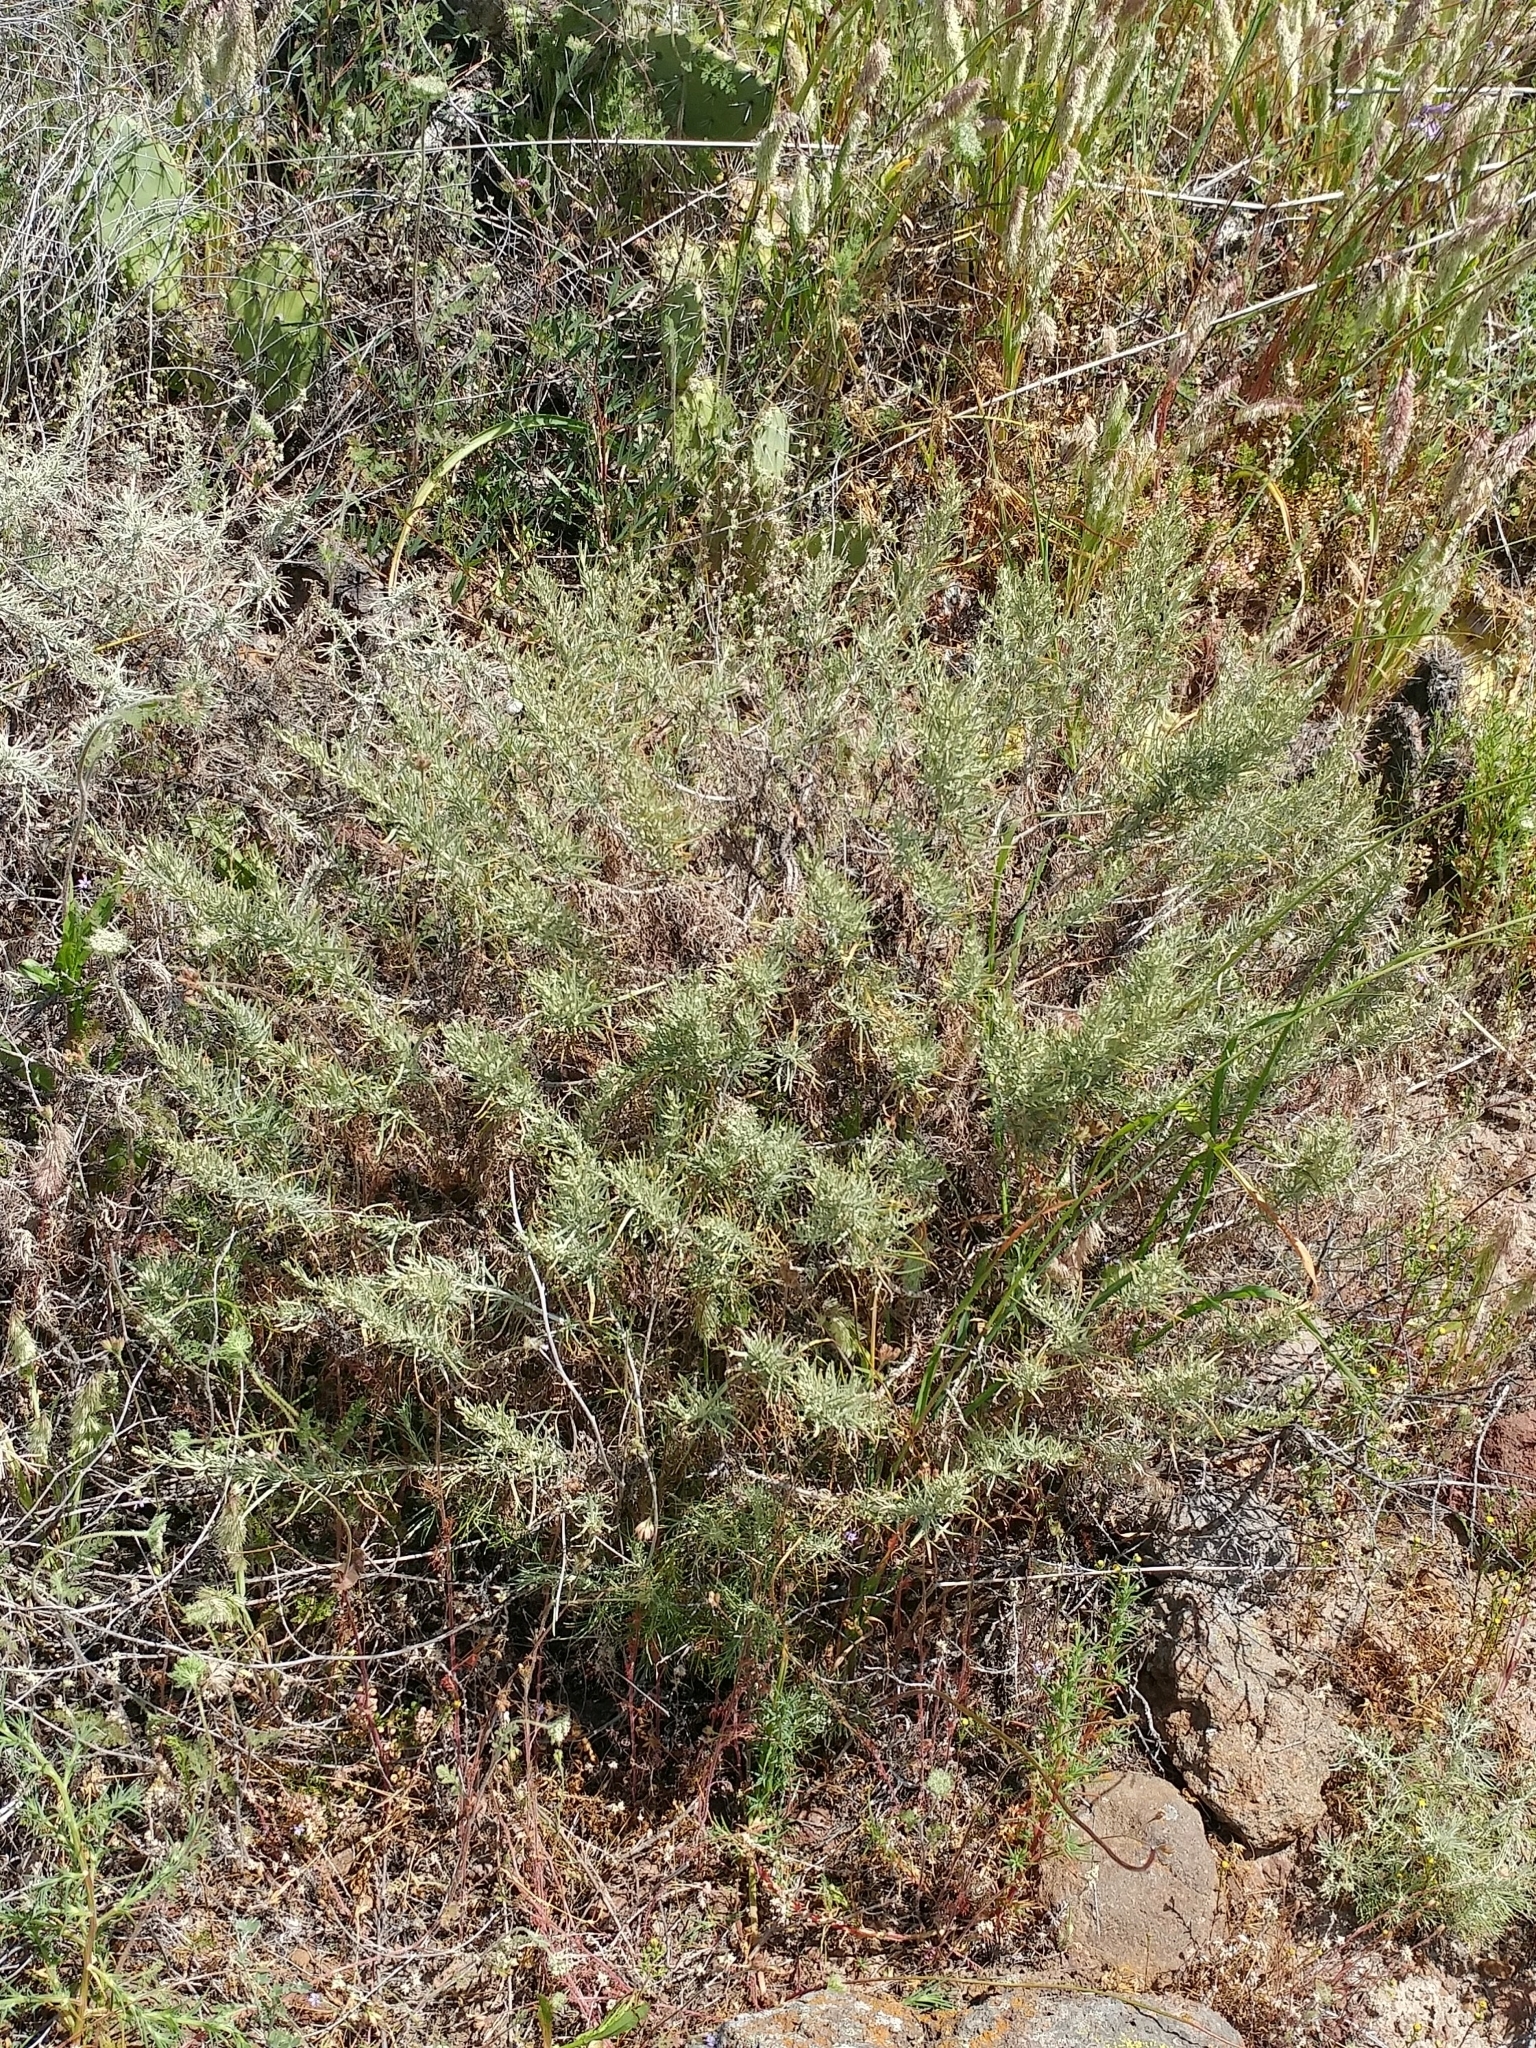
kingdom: Plantae
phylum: Tracheophyta
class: Magnoliopsida
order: Asterales
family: Asteraceae
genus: Artemisia
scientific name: Artemisia californica
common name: California sagebrush
